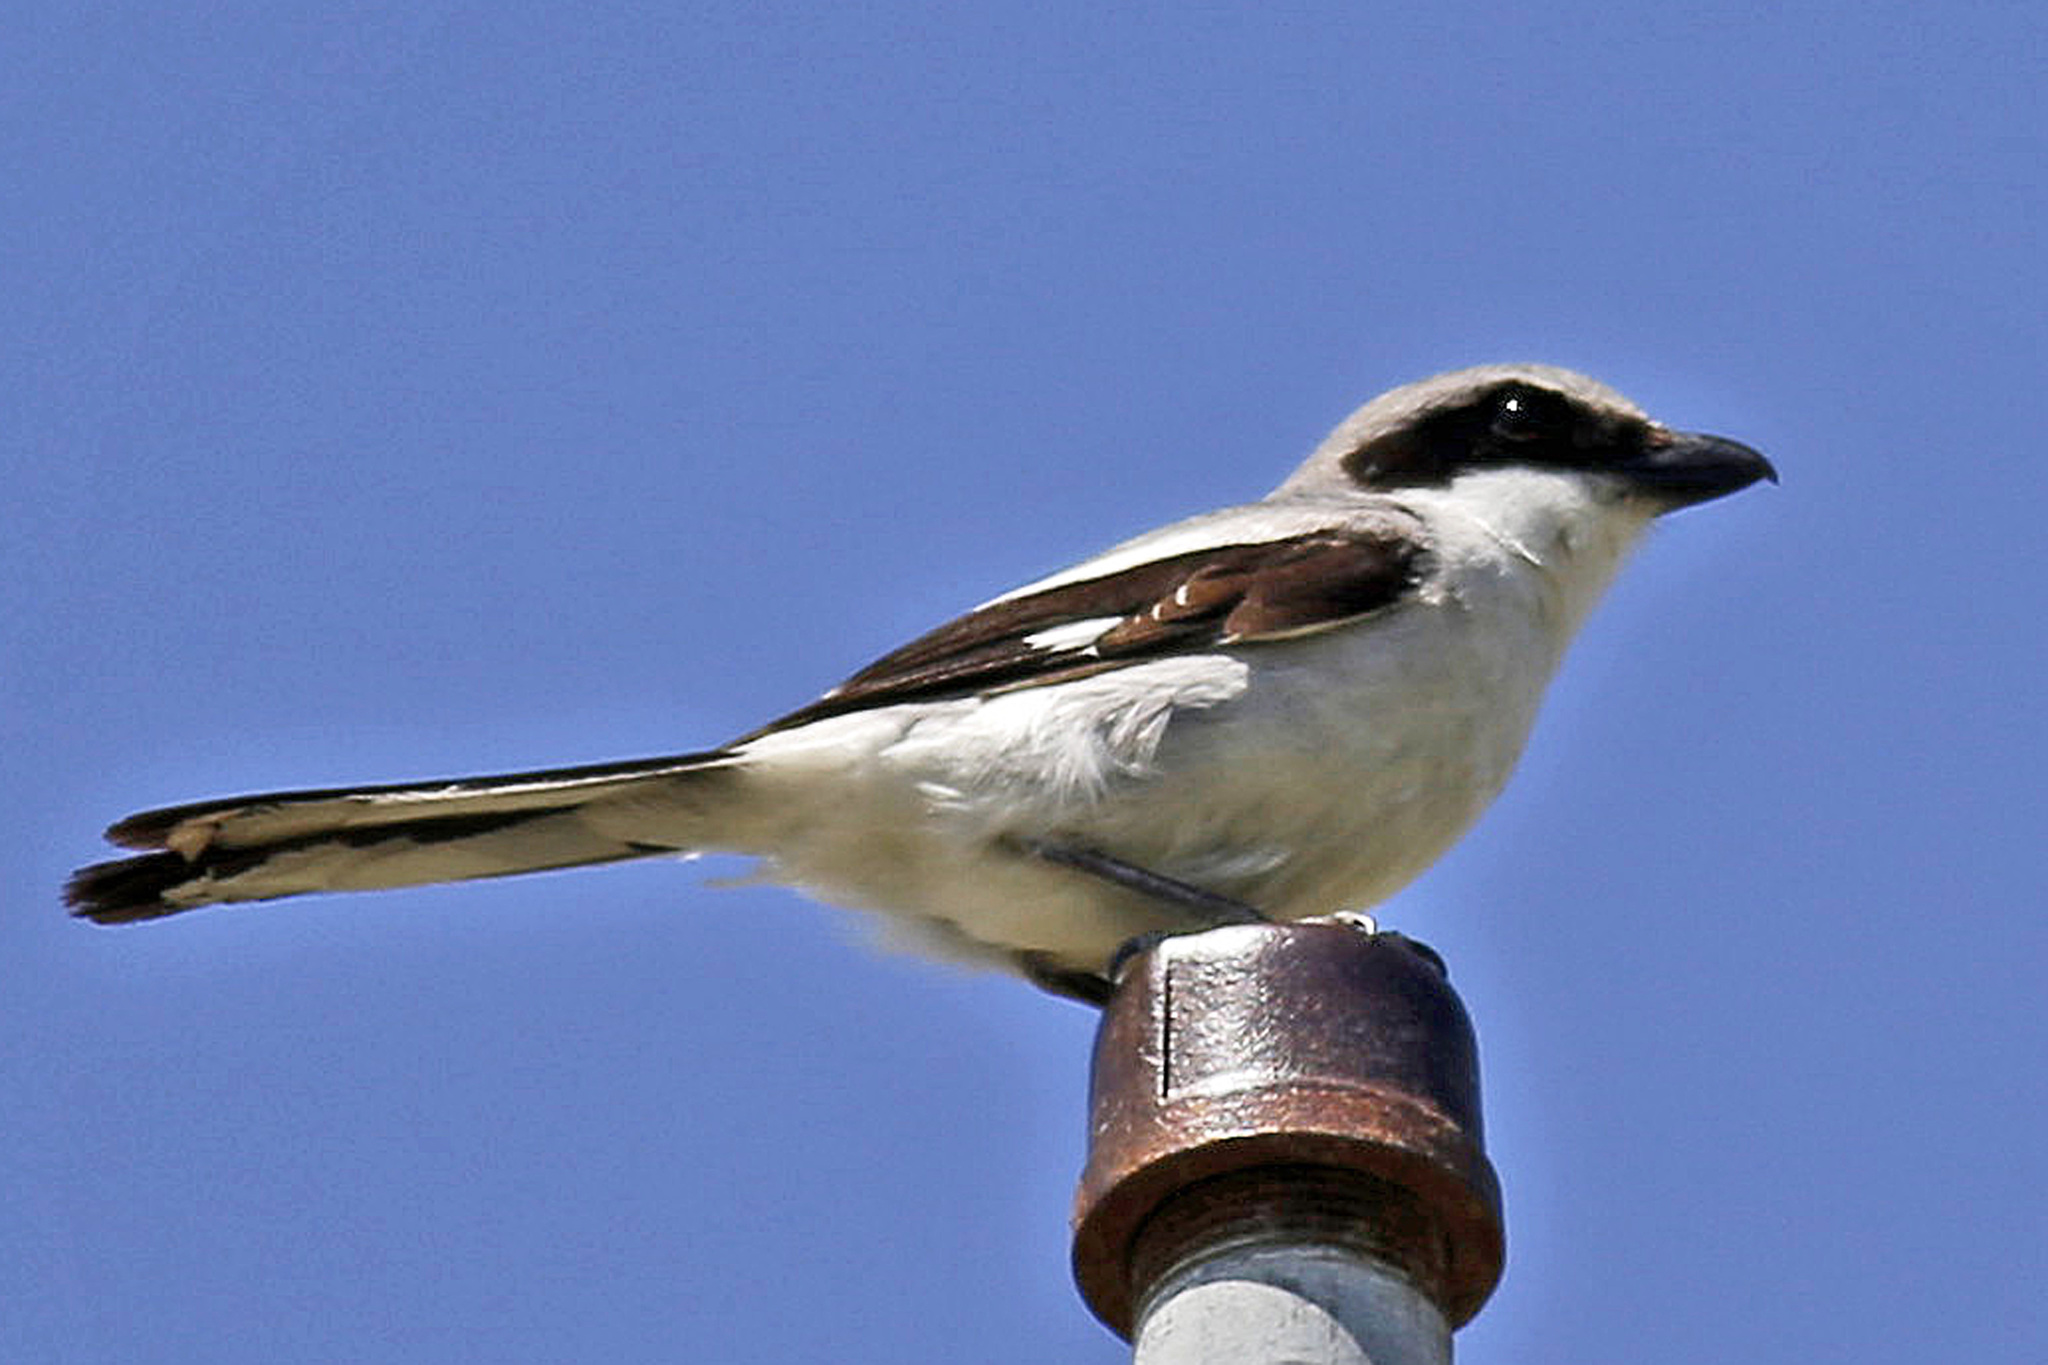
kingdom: Animalia
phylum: Chordata
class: Aves
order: Passeriformes
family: Laniidae
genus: Lanius
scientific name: Lanius ludovicianus
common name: Loggerhead shrike
